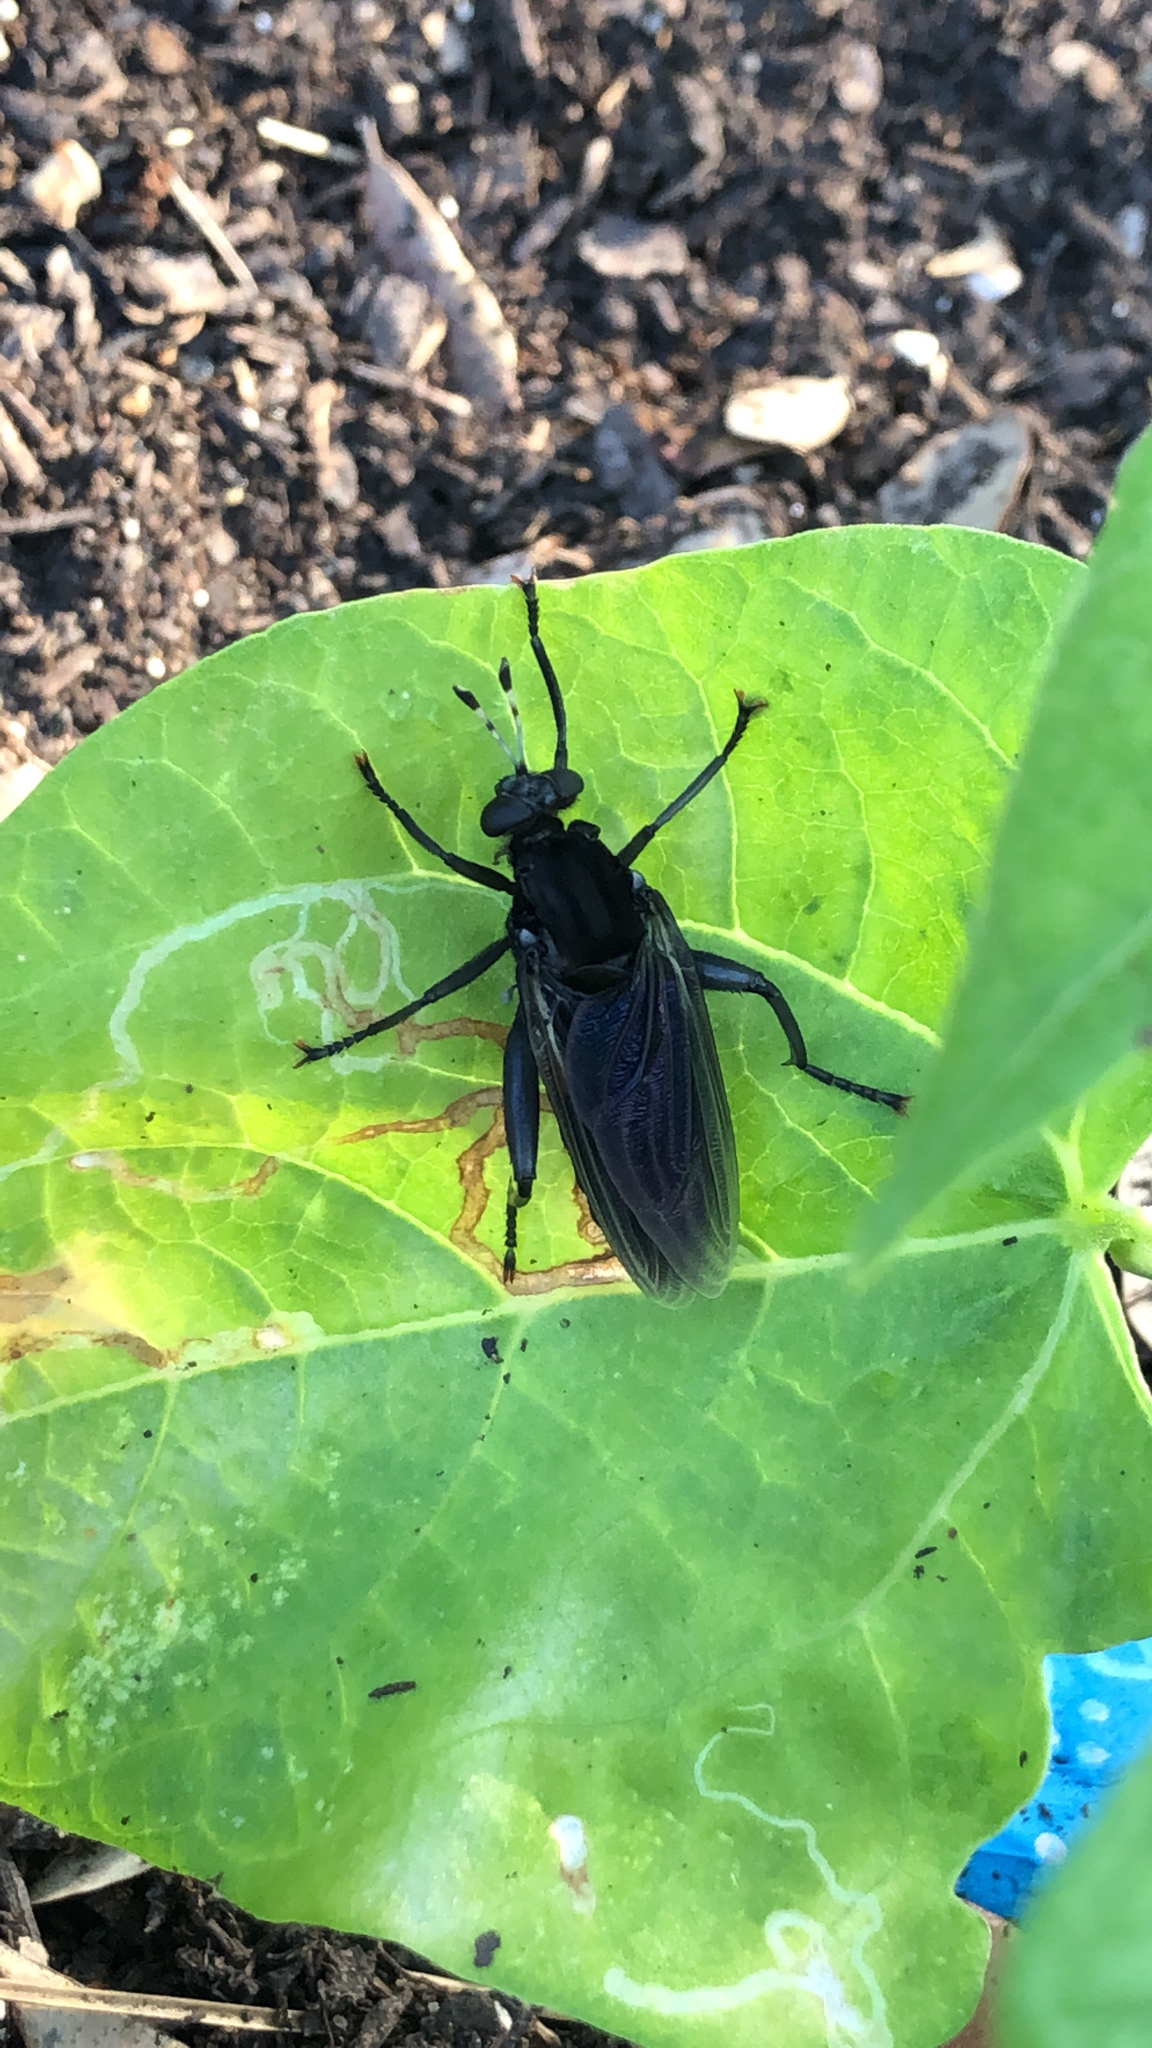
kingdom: Animalia
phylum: Arthropoda
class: Insecta
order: Diptera
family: Mydidae
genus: Mydas
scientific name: Mydas clavatus
